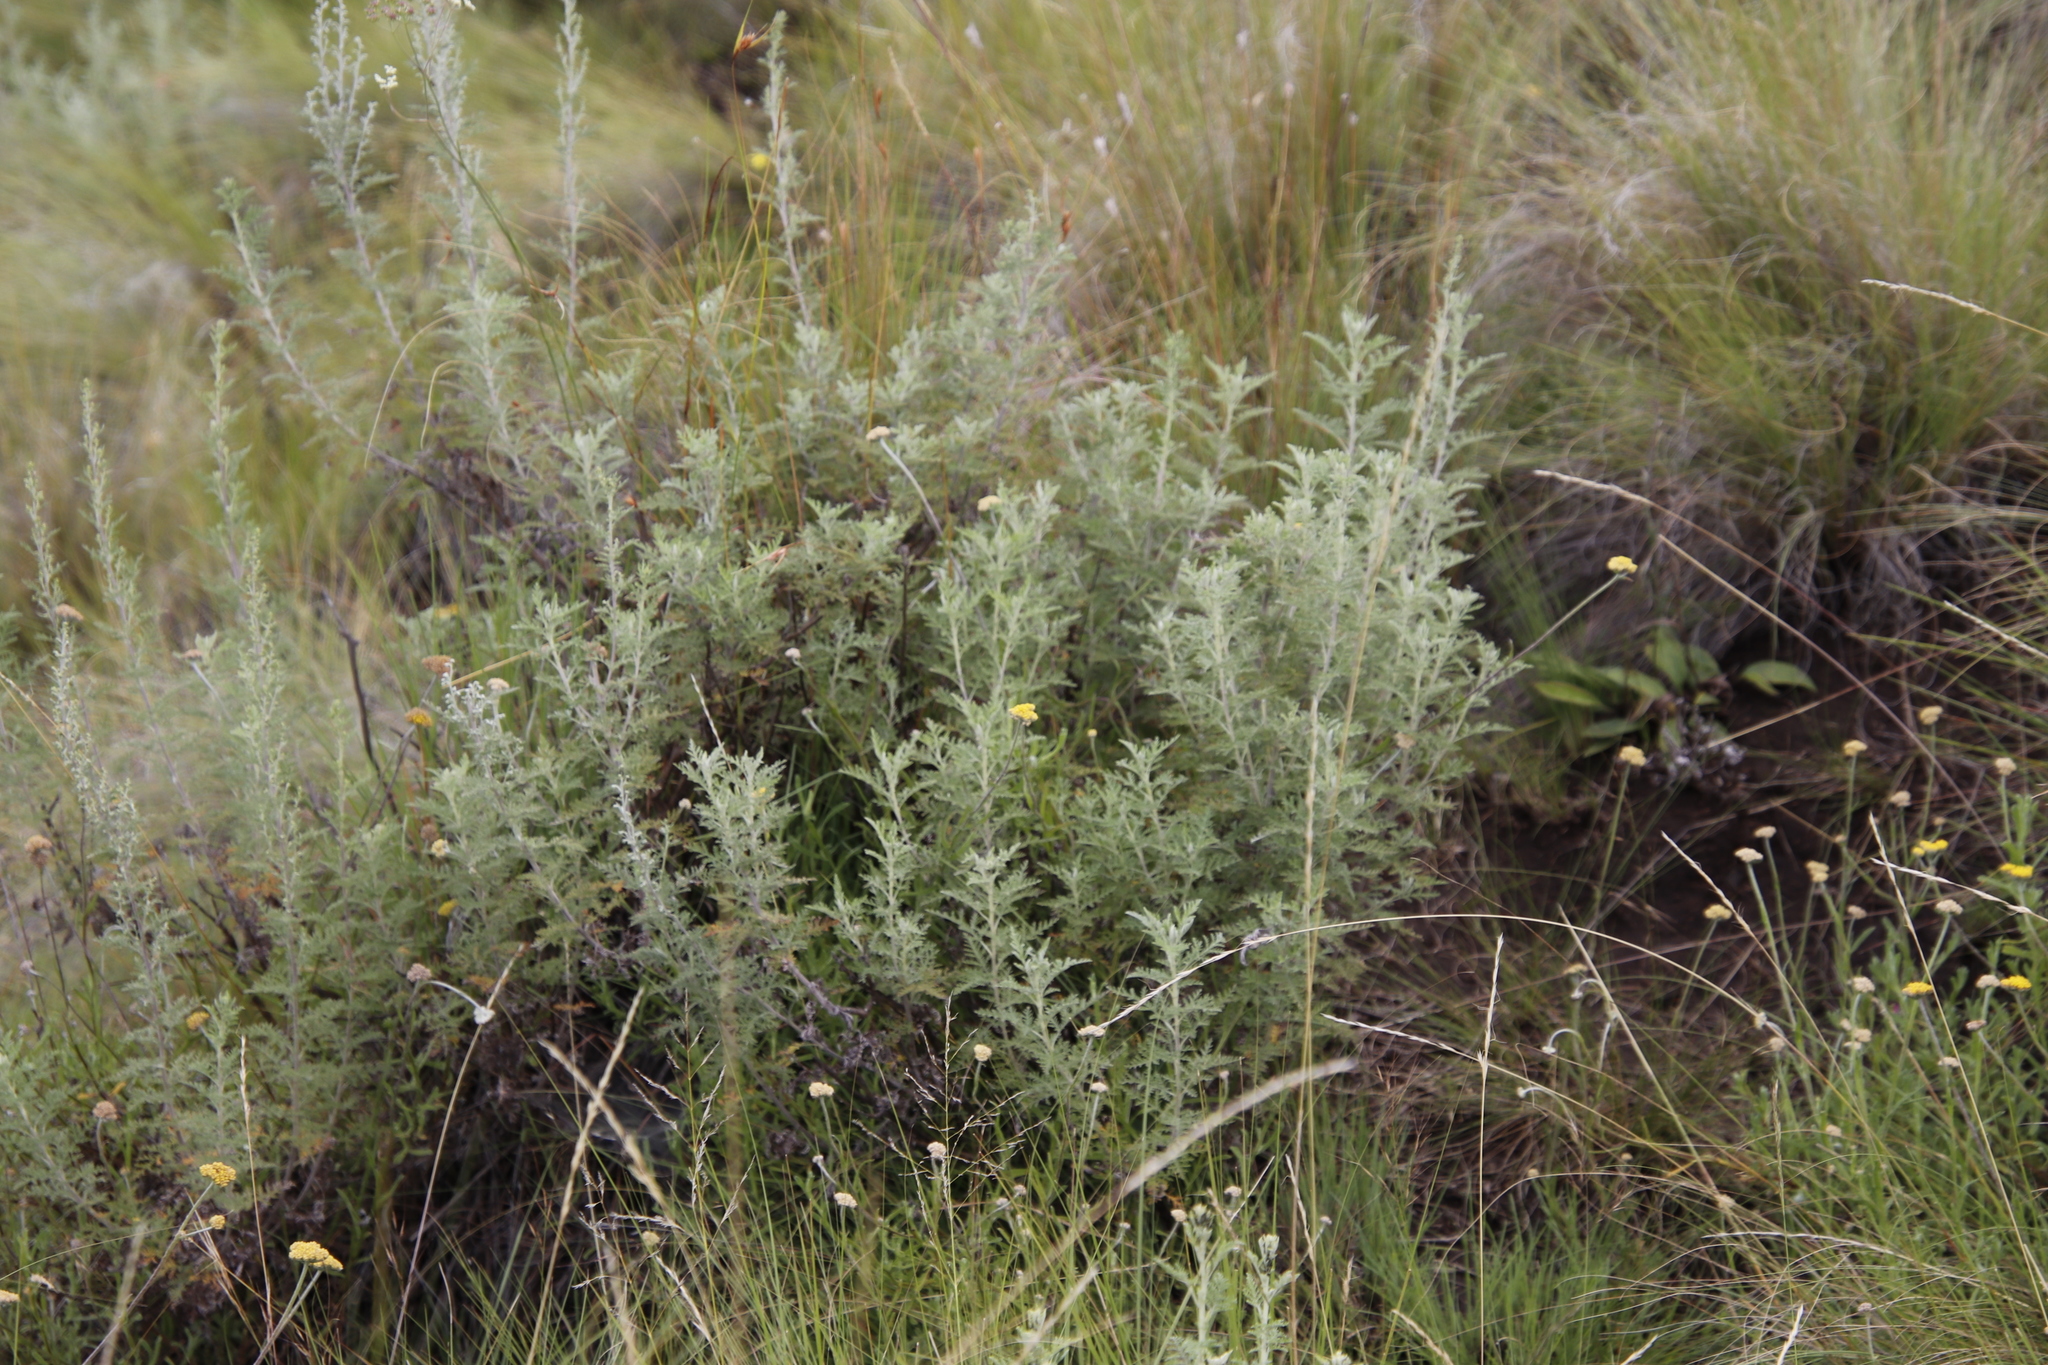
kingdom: Plantae
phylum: Tracheophyta
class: Magnoliopsida
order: Asterales
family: Asteraceae
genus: Artemisia
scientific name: Artemisia afra
